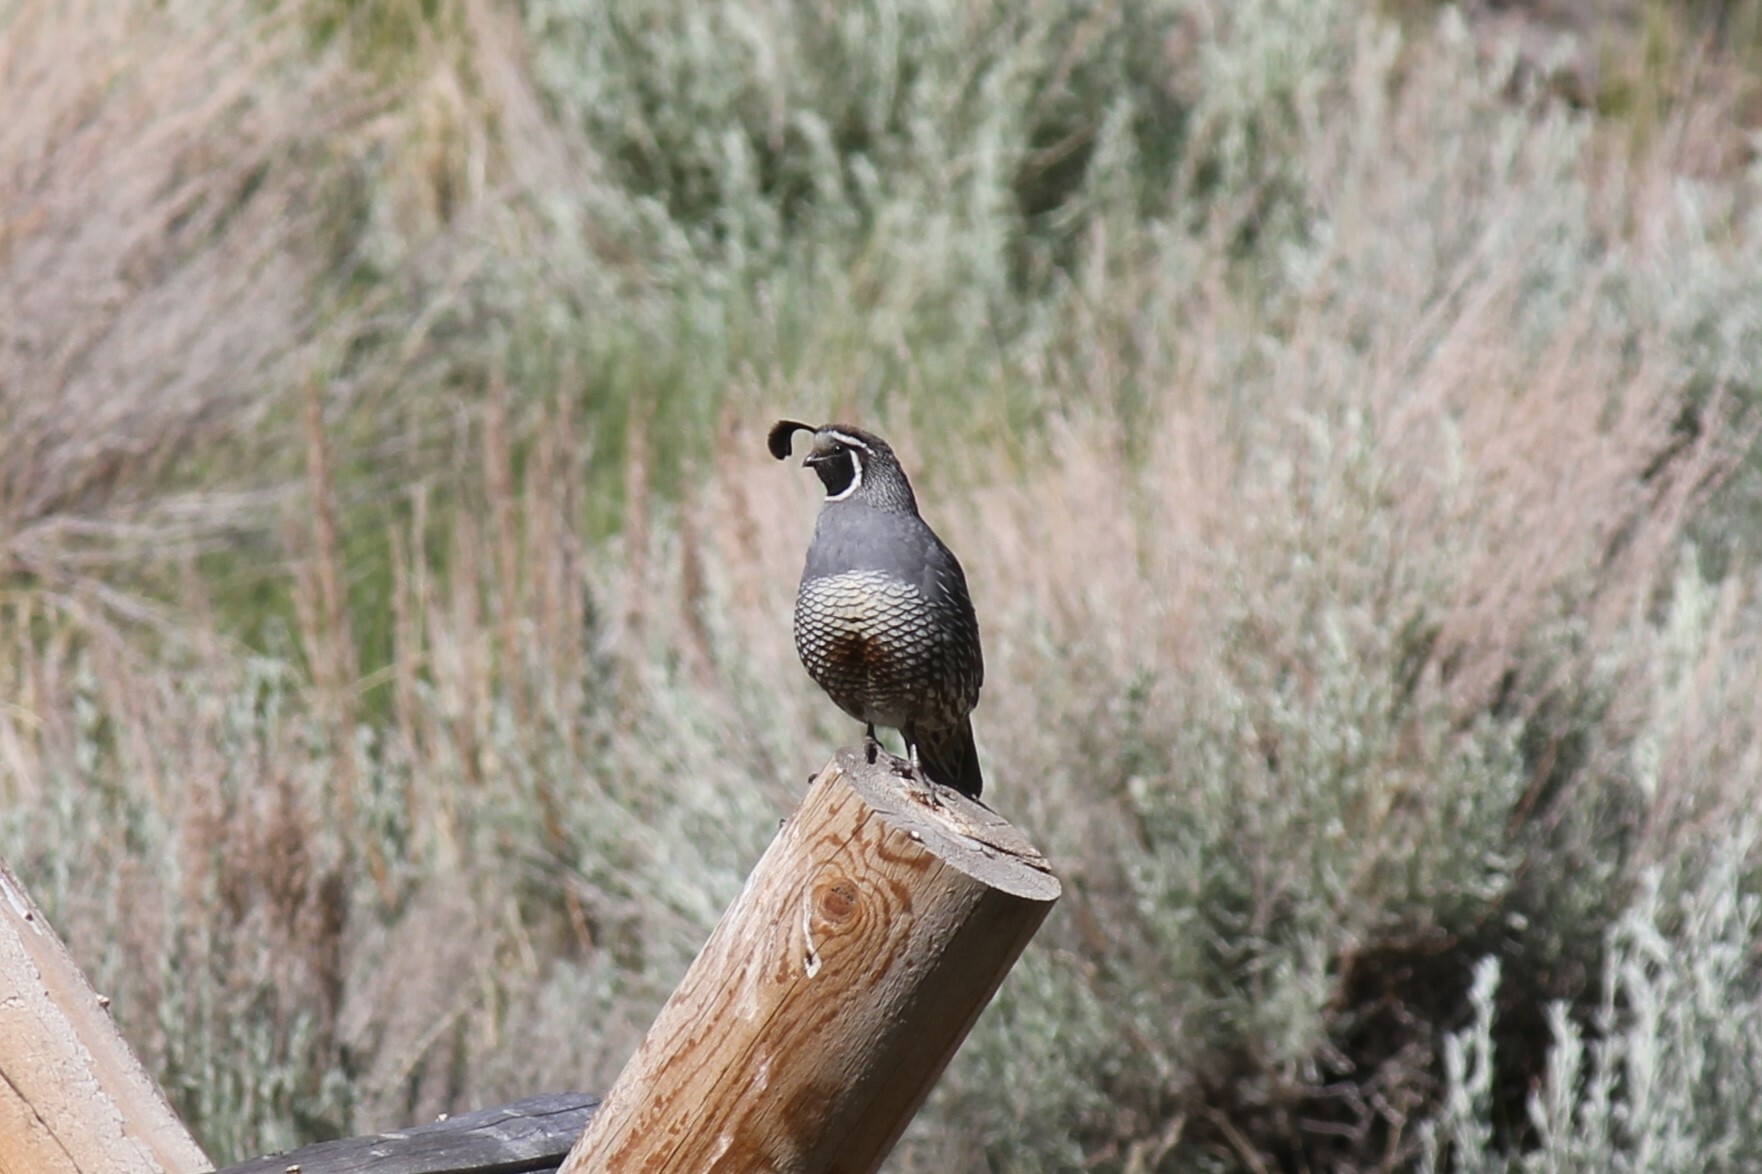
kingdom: Animalia
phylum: Chordata
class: Aves
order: Galliformes
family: Odontophoridae
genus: Callipepla
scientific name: Callipepla californica
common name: California quail
